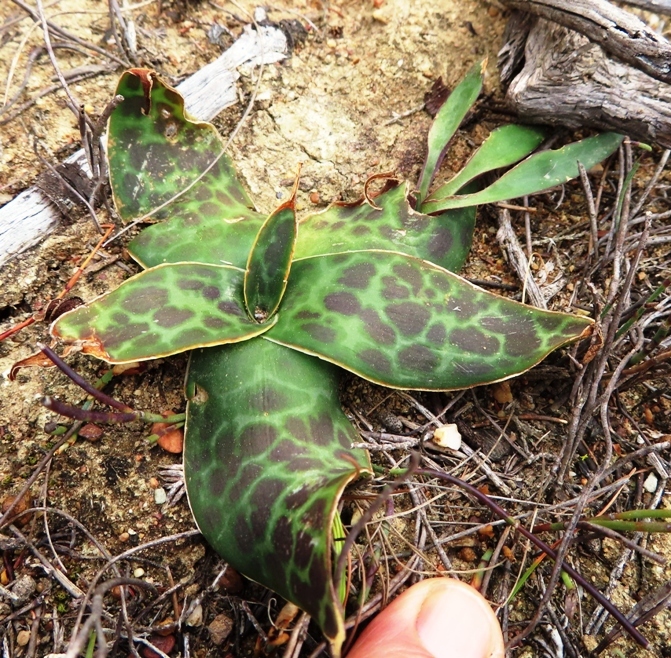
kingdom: Plantae
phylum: Tracheophyta
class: Liliopsida
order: Asparagales
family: Asparagaceae
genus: Ledebouria
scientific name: Ledebouria revoluta
